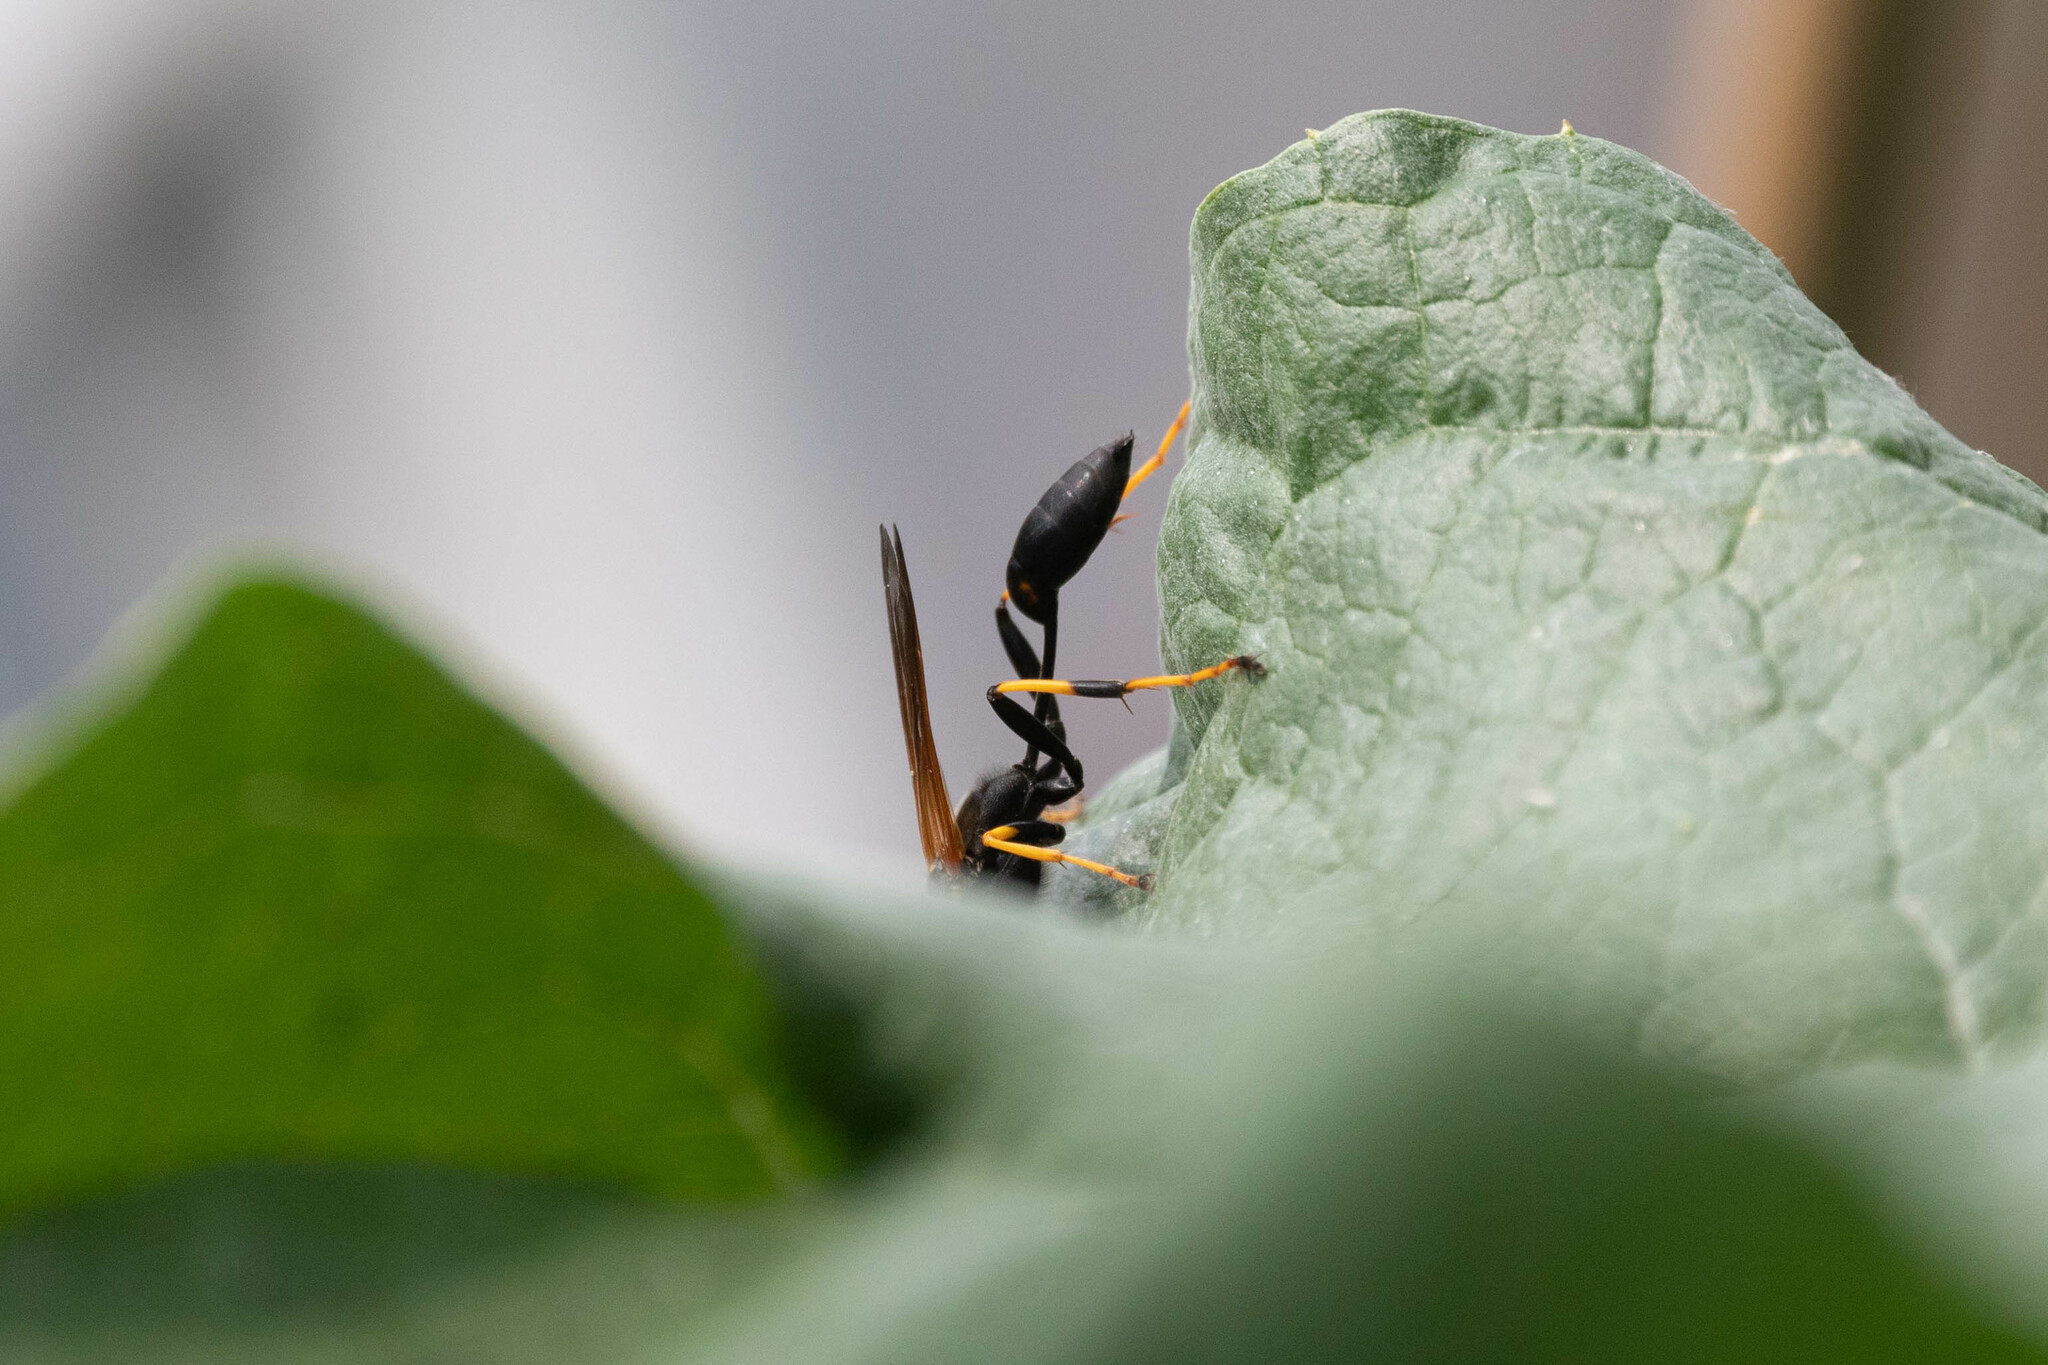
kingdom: Animalia
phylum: Arthropoda
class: Insecta
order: Hymenoptera
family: Sphecidae
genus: Sceliphron
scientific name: Sceliphron caementarium
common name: Mud dauber
